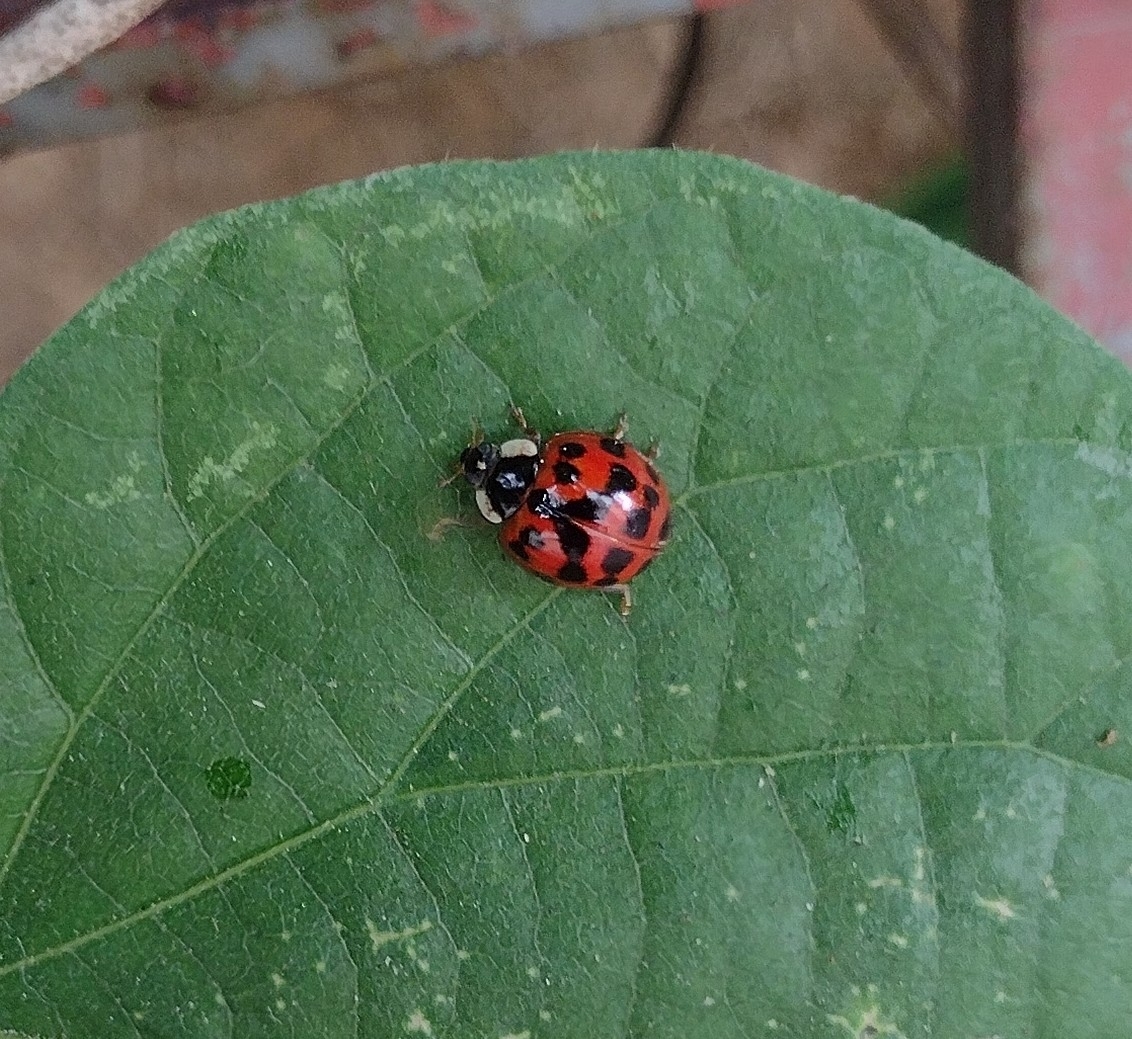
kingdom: Animalia
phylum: Arthropoda
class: Insecta
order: Coleoptera
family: Coccinellidae
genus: Harmonia
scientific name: Harmonia axyridis
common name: Harlequin ladybird
